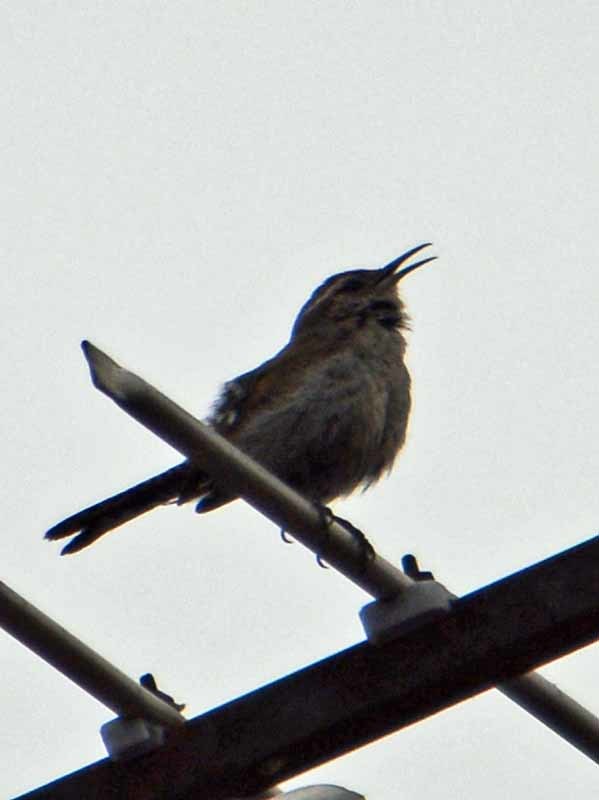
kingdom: Animalia
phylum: Chordata
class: Aves
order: Passeriformes
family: Troglodytidae
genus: Thryomanes
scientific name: Thryomanes bewickii
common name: Bewick's wren
